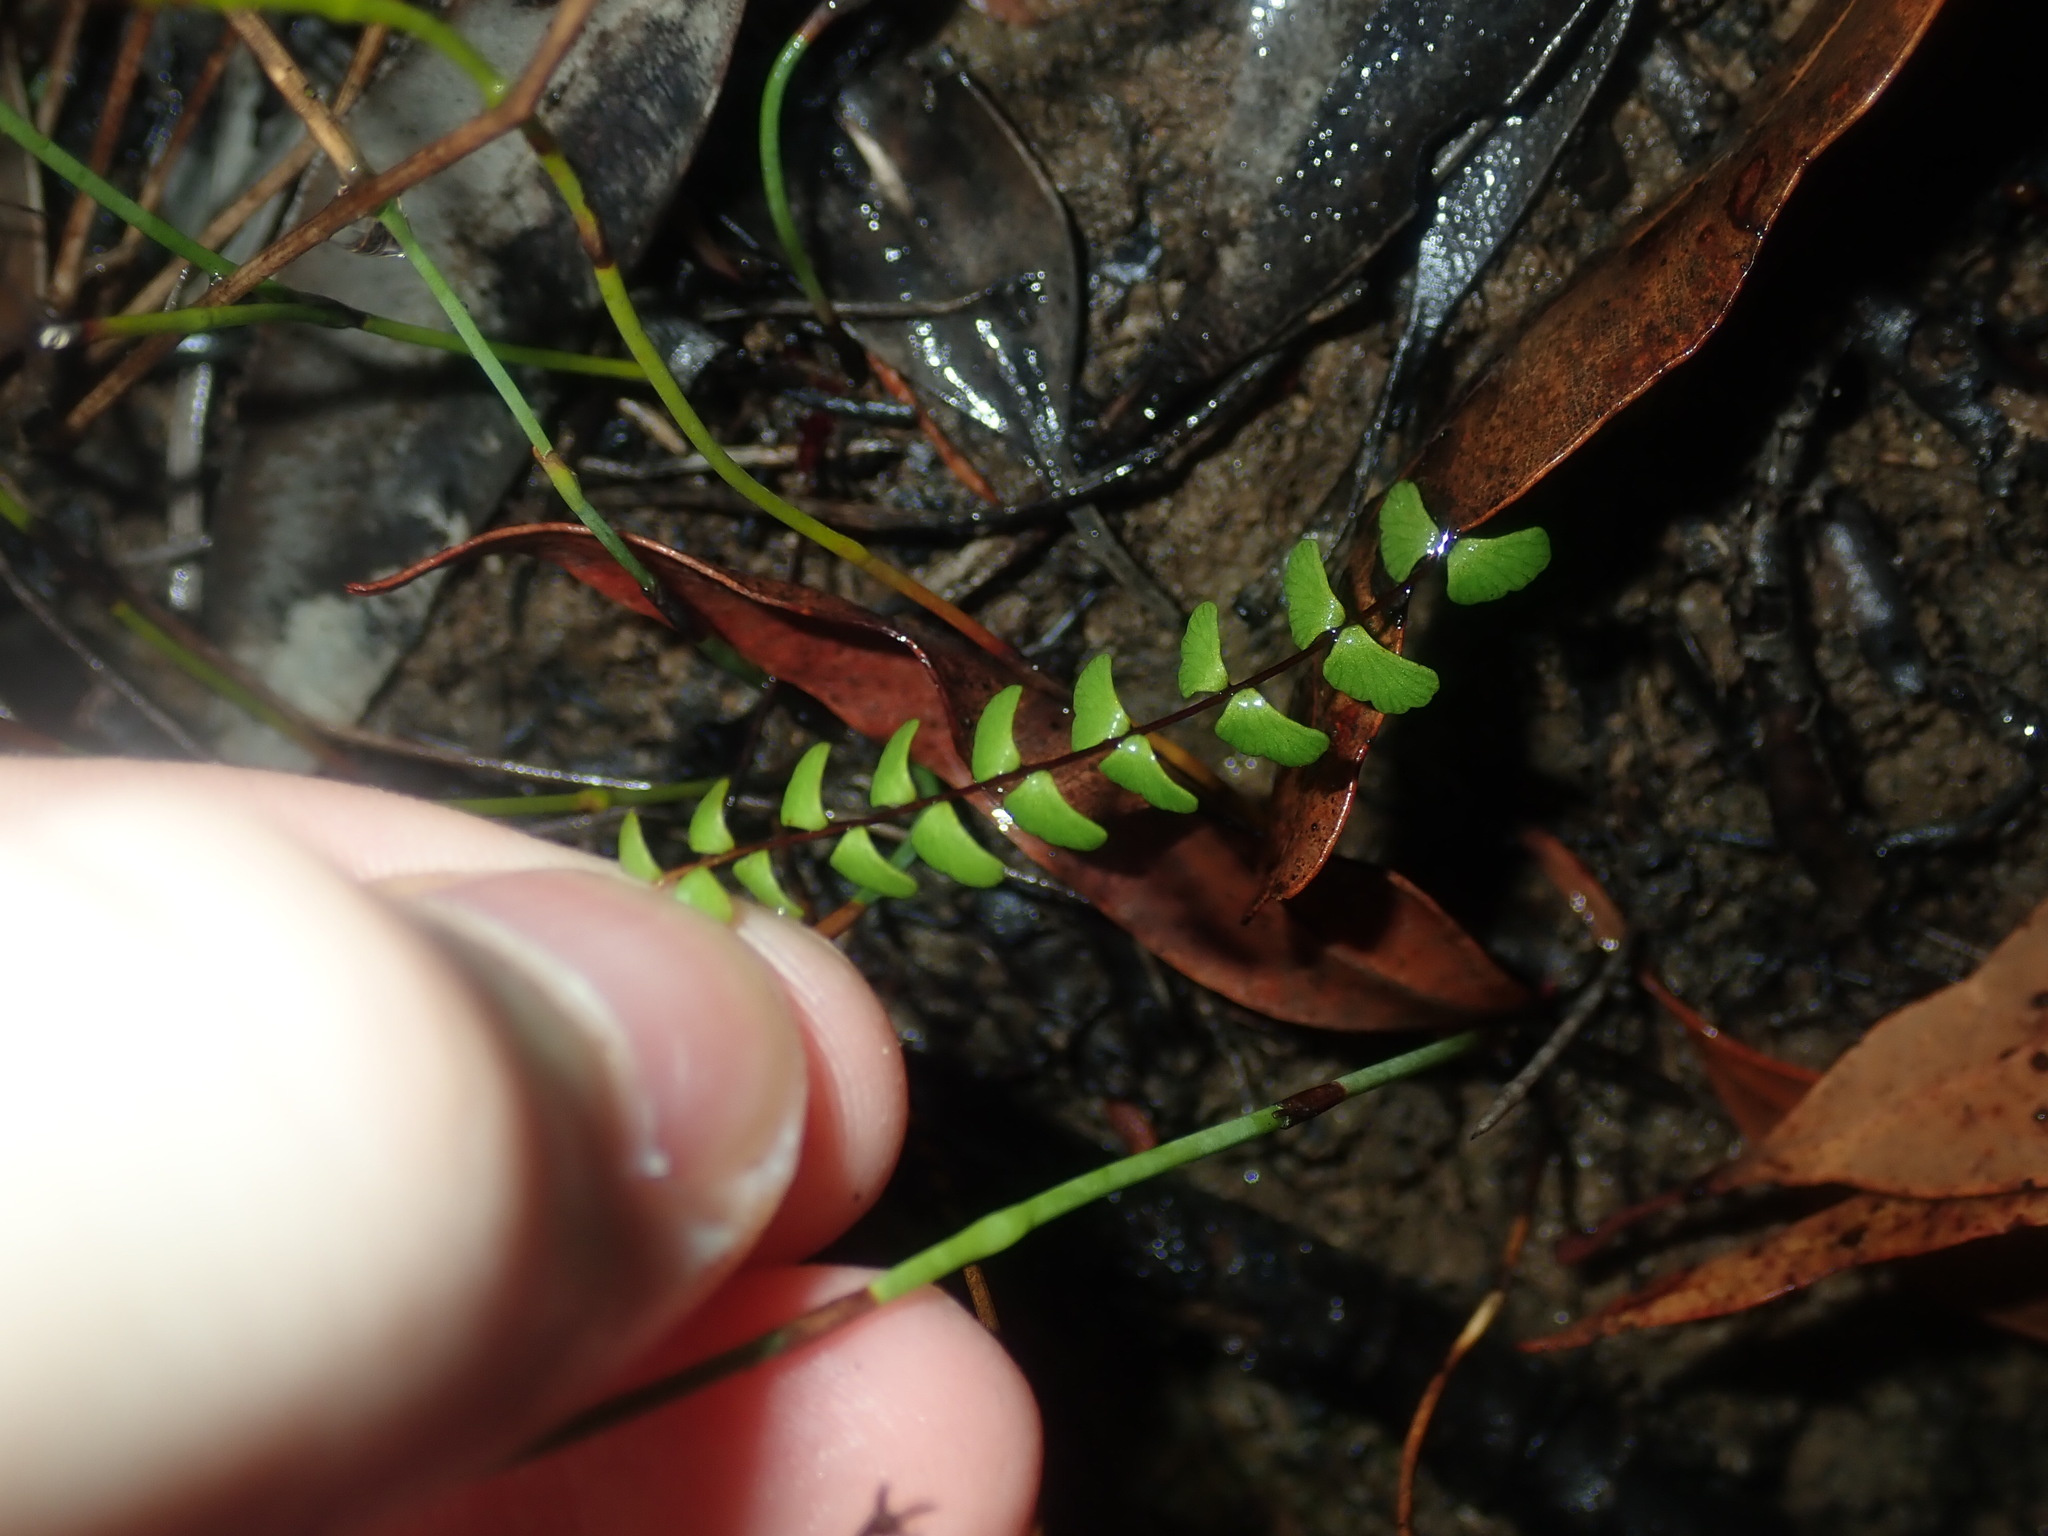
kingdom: Plantae
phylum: Tracheophyta
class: Polypodiopsida
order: Polypodiales
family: Lindsaeaceae
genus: Lindsaea
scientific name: Lindsaea linearis
